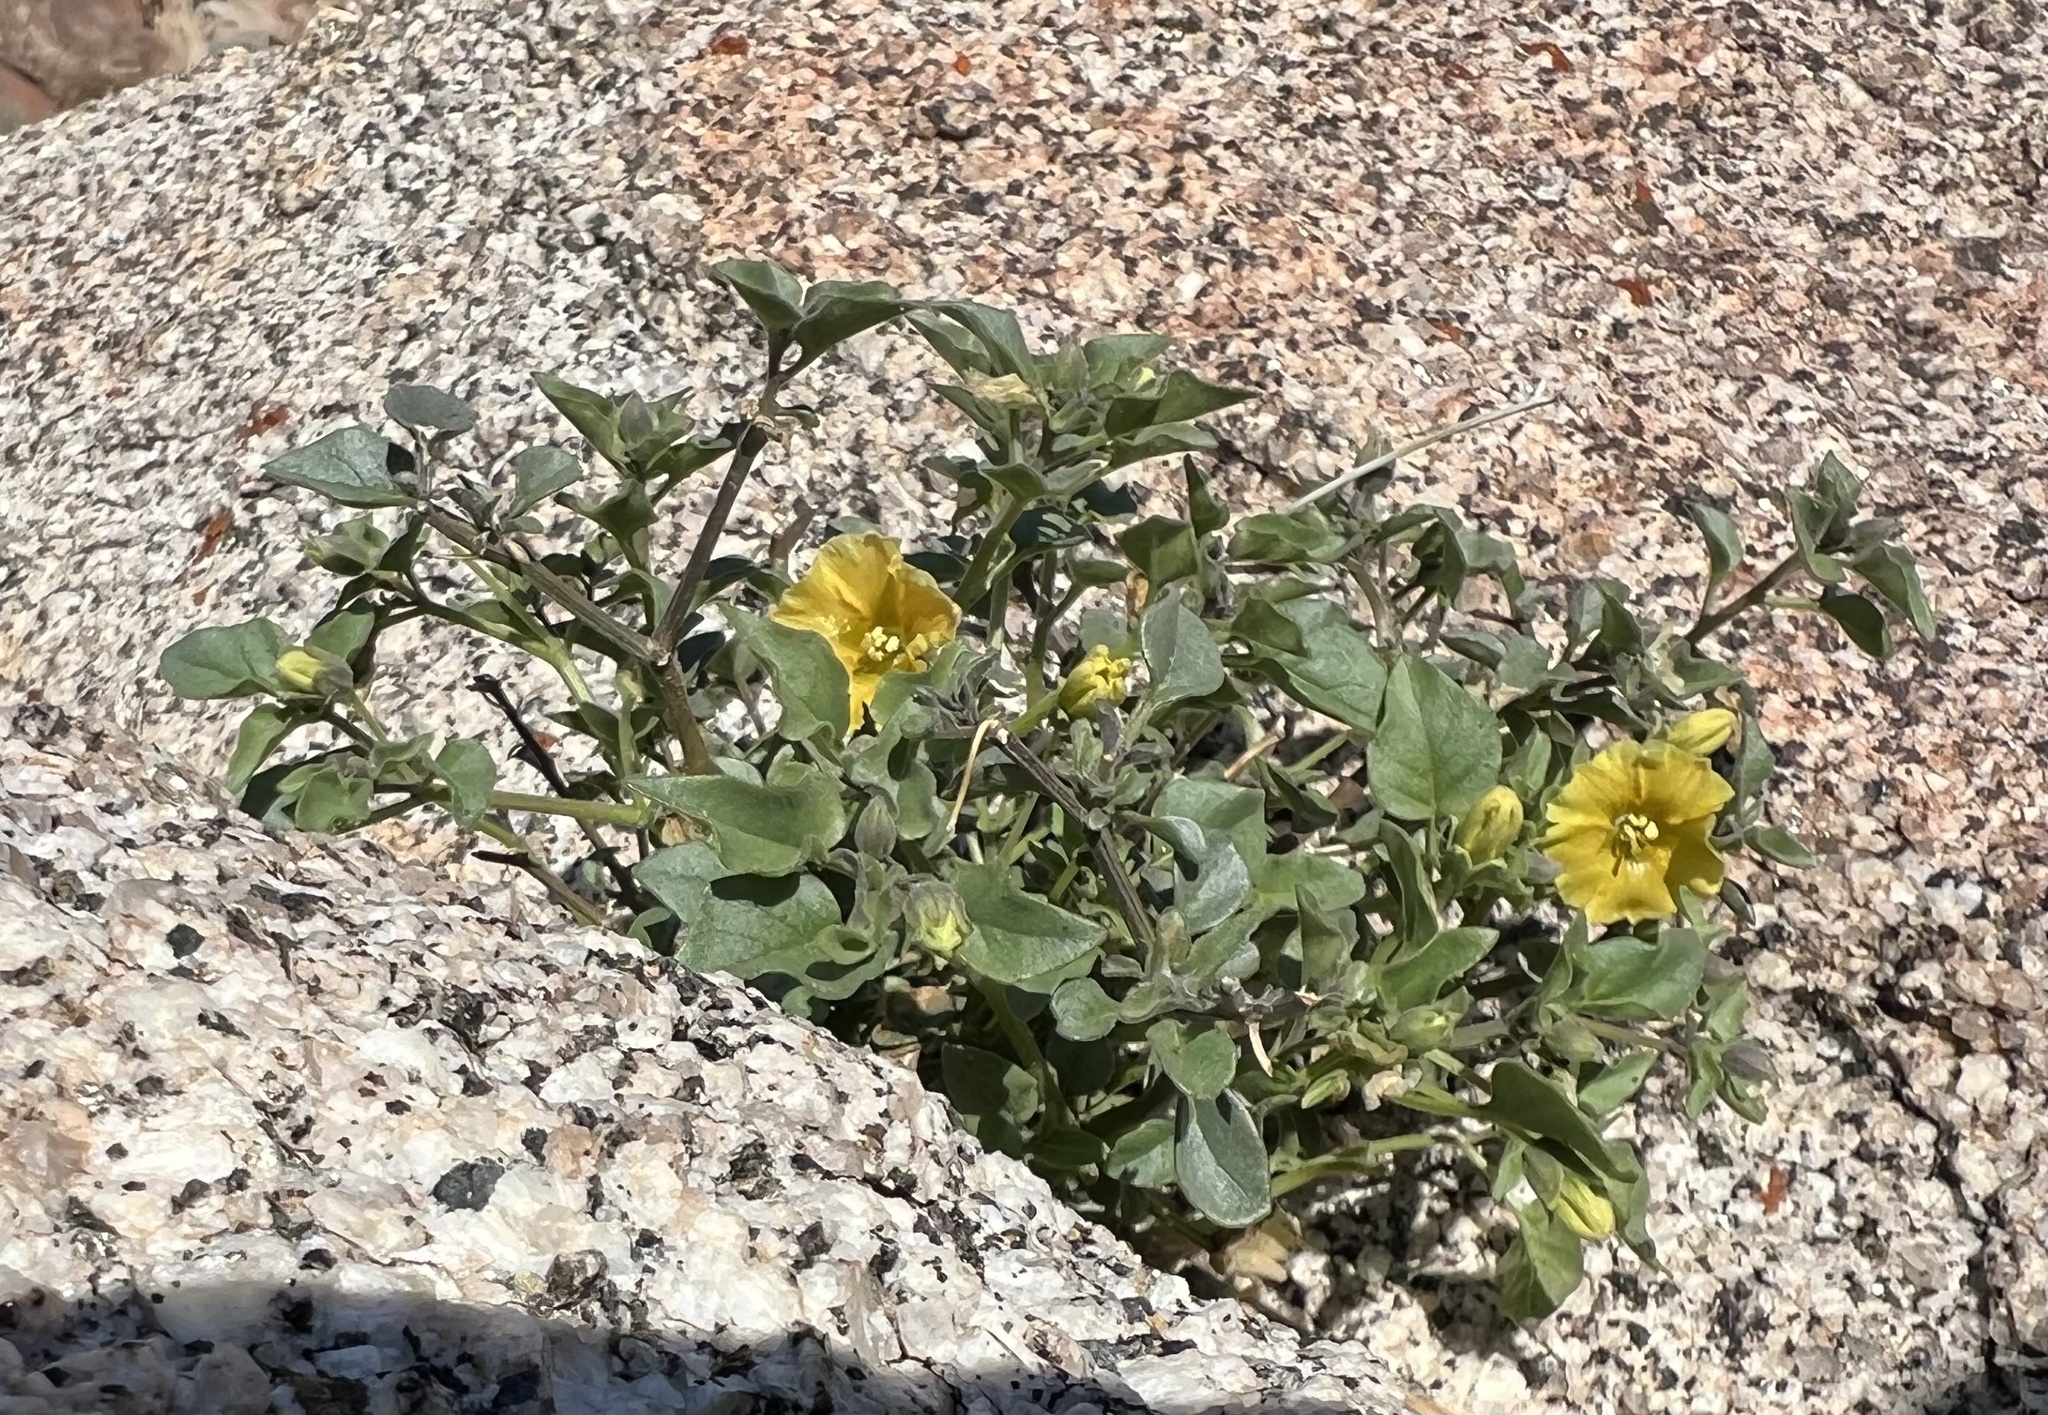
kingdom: Plantae
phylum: Tracheophyta
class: Magnoliopsida
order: Solanales
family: Solanaceae
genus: Physalis
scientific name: Physalis crassifolia
